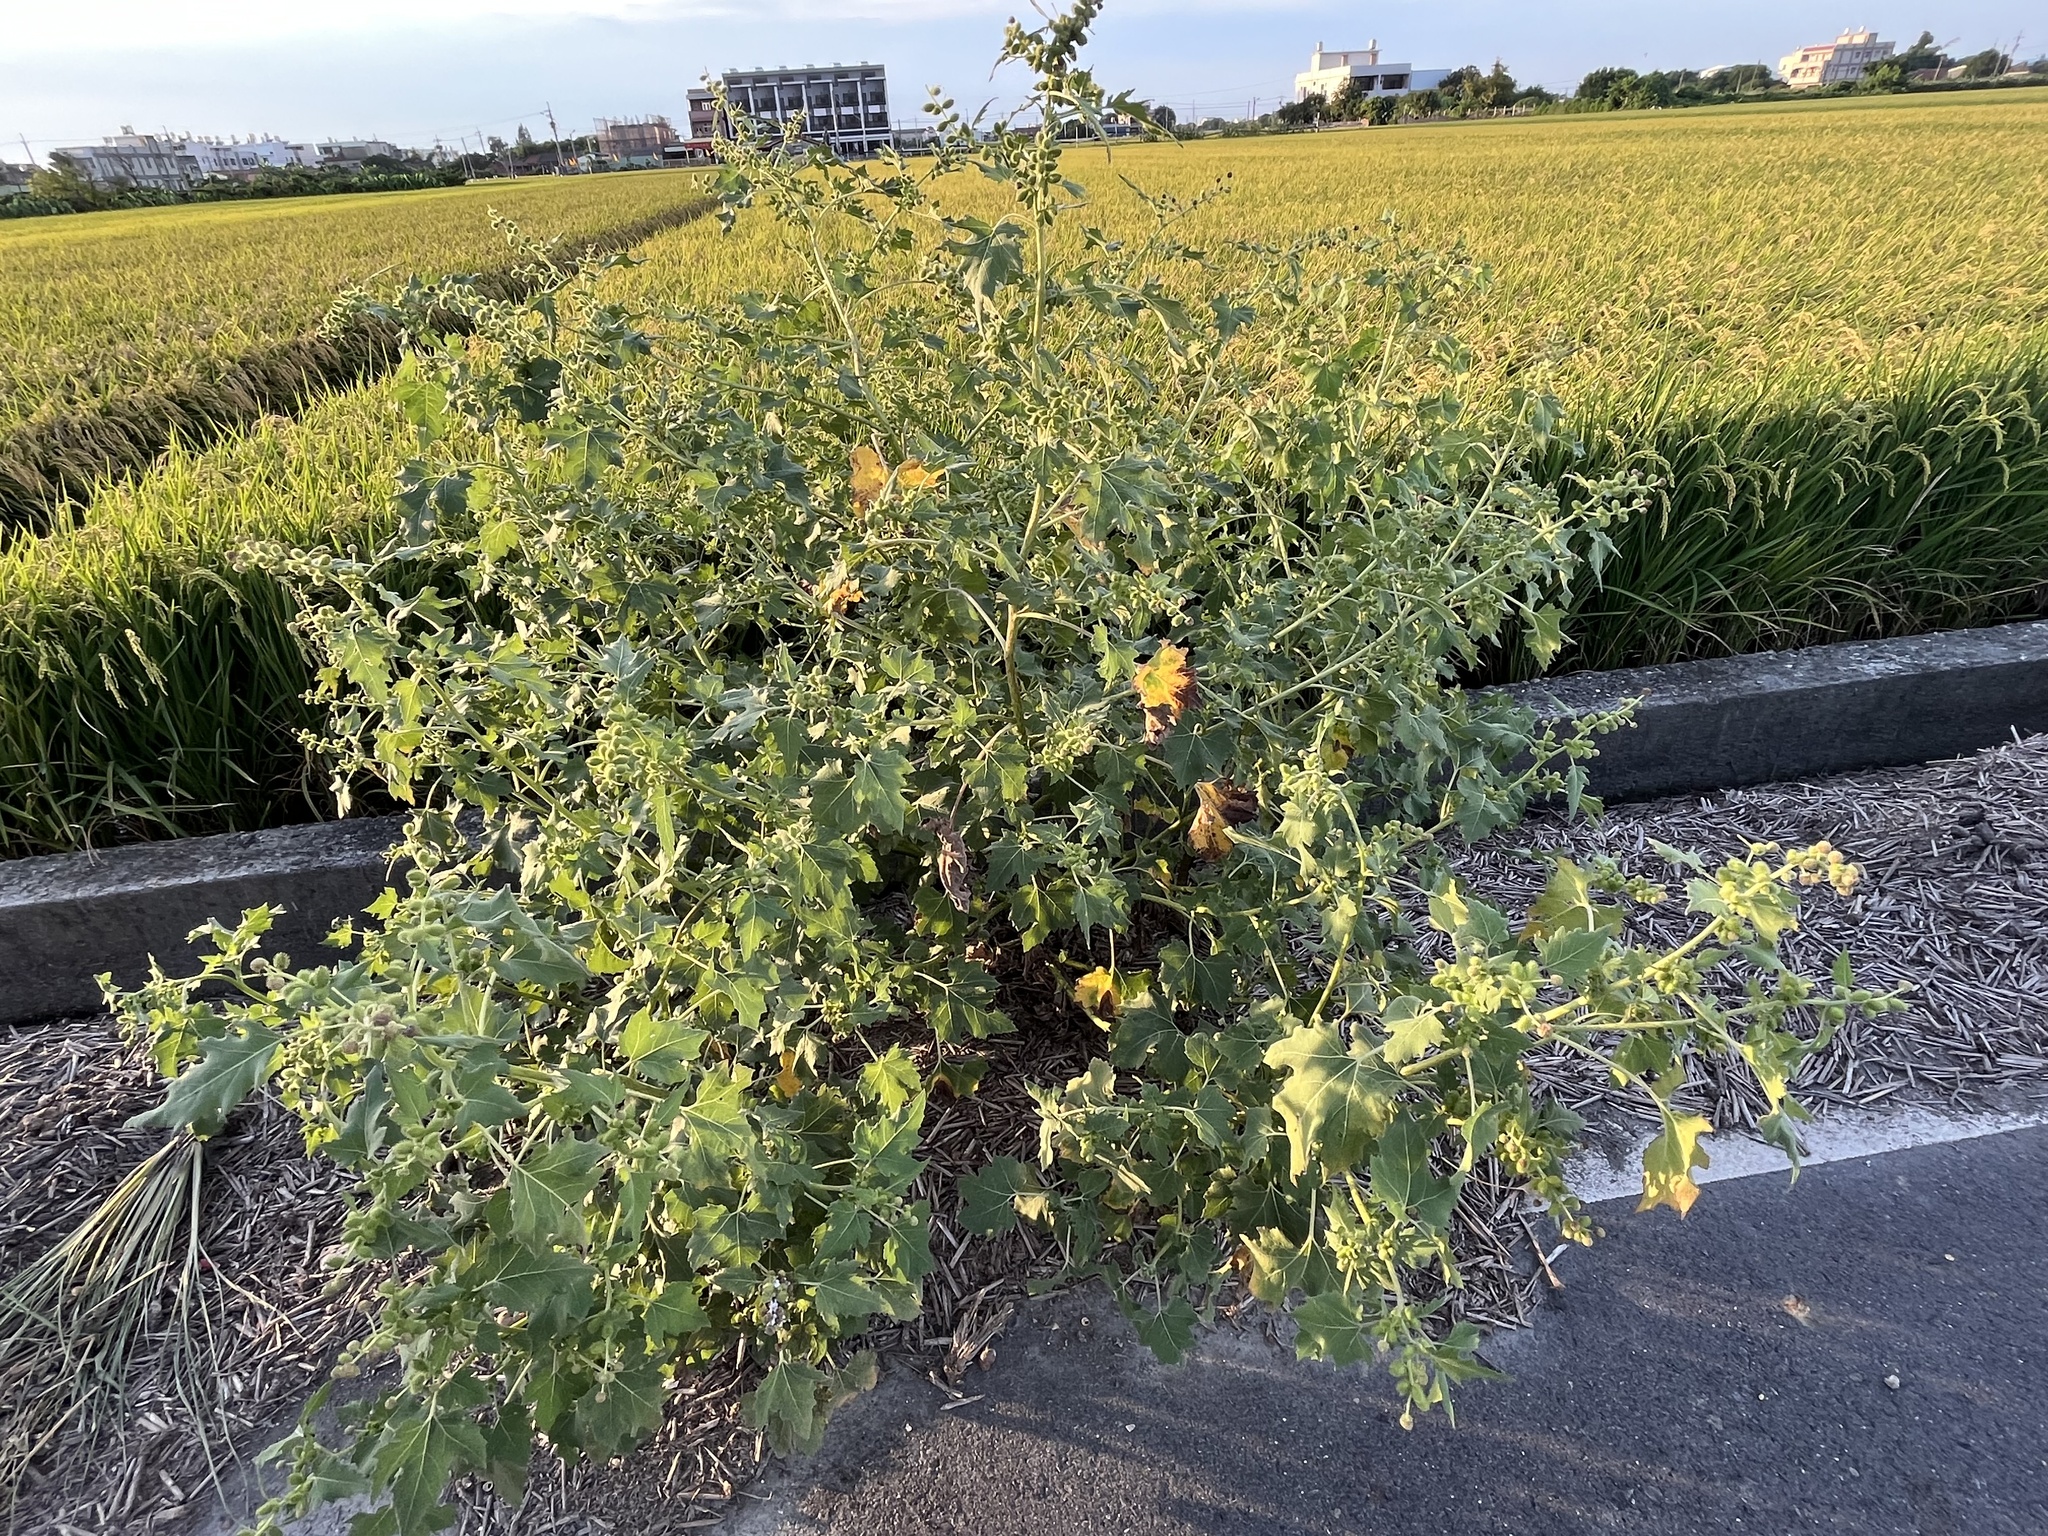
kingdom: Plantae
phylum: Tracheophyta
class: Magnoliopsida
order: Asterales
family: Asteraceae
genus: Xanthium
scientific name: Xanthium strumarium
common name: Rough cocklebur
